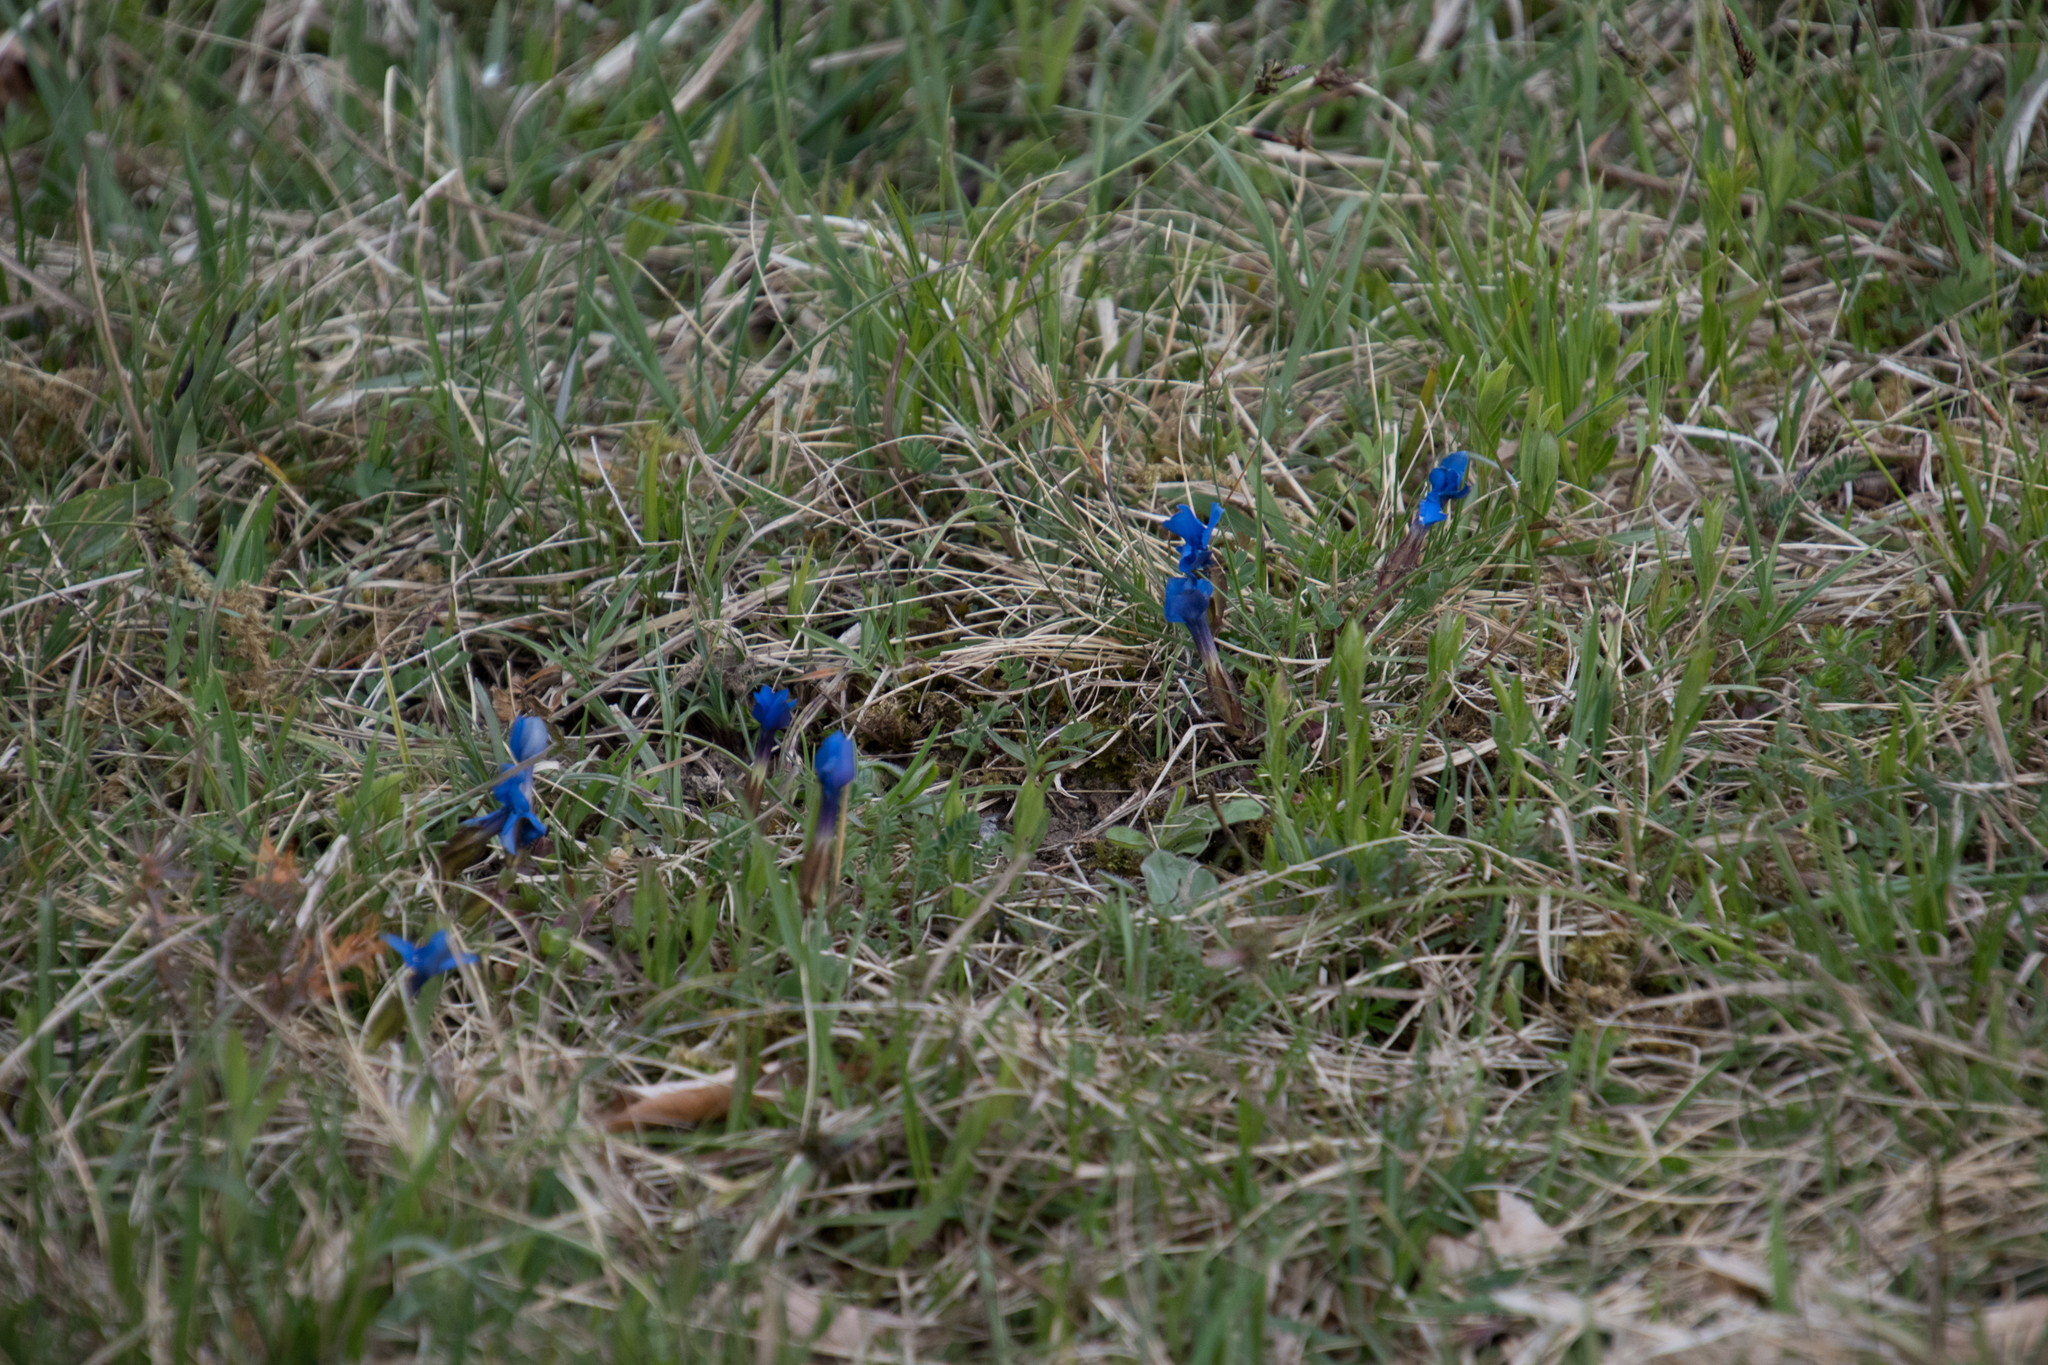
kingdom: Plantae
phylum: Tracheophyta
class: Magnoliopsida
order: Gentianales
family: Gentianaceae
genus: Gentiana
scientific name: Gentiana verna
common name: Spring gentian
